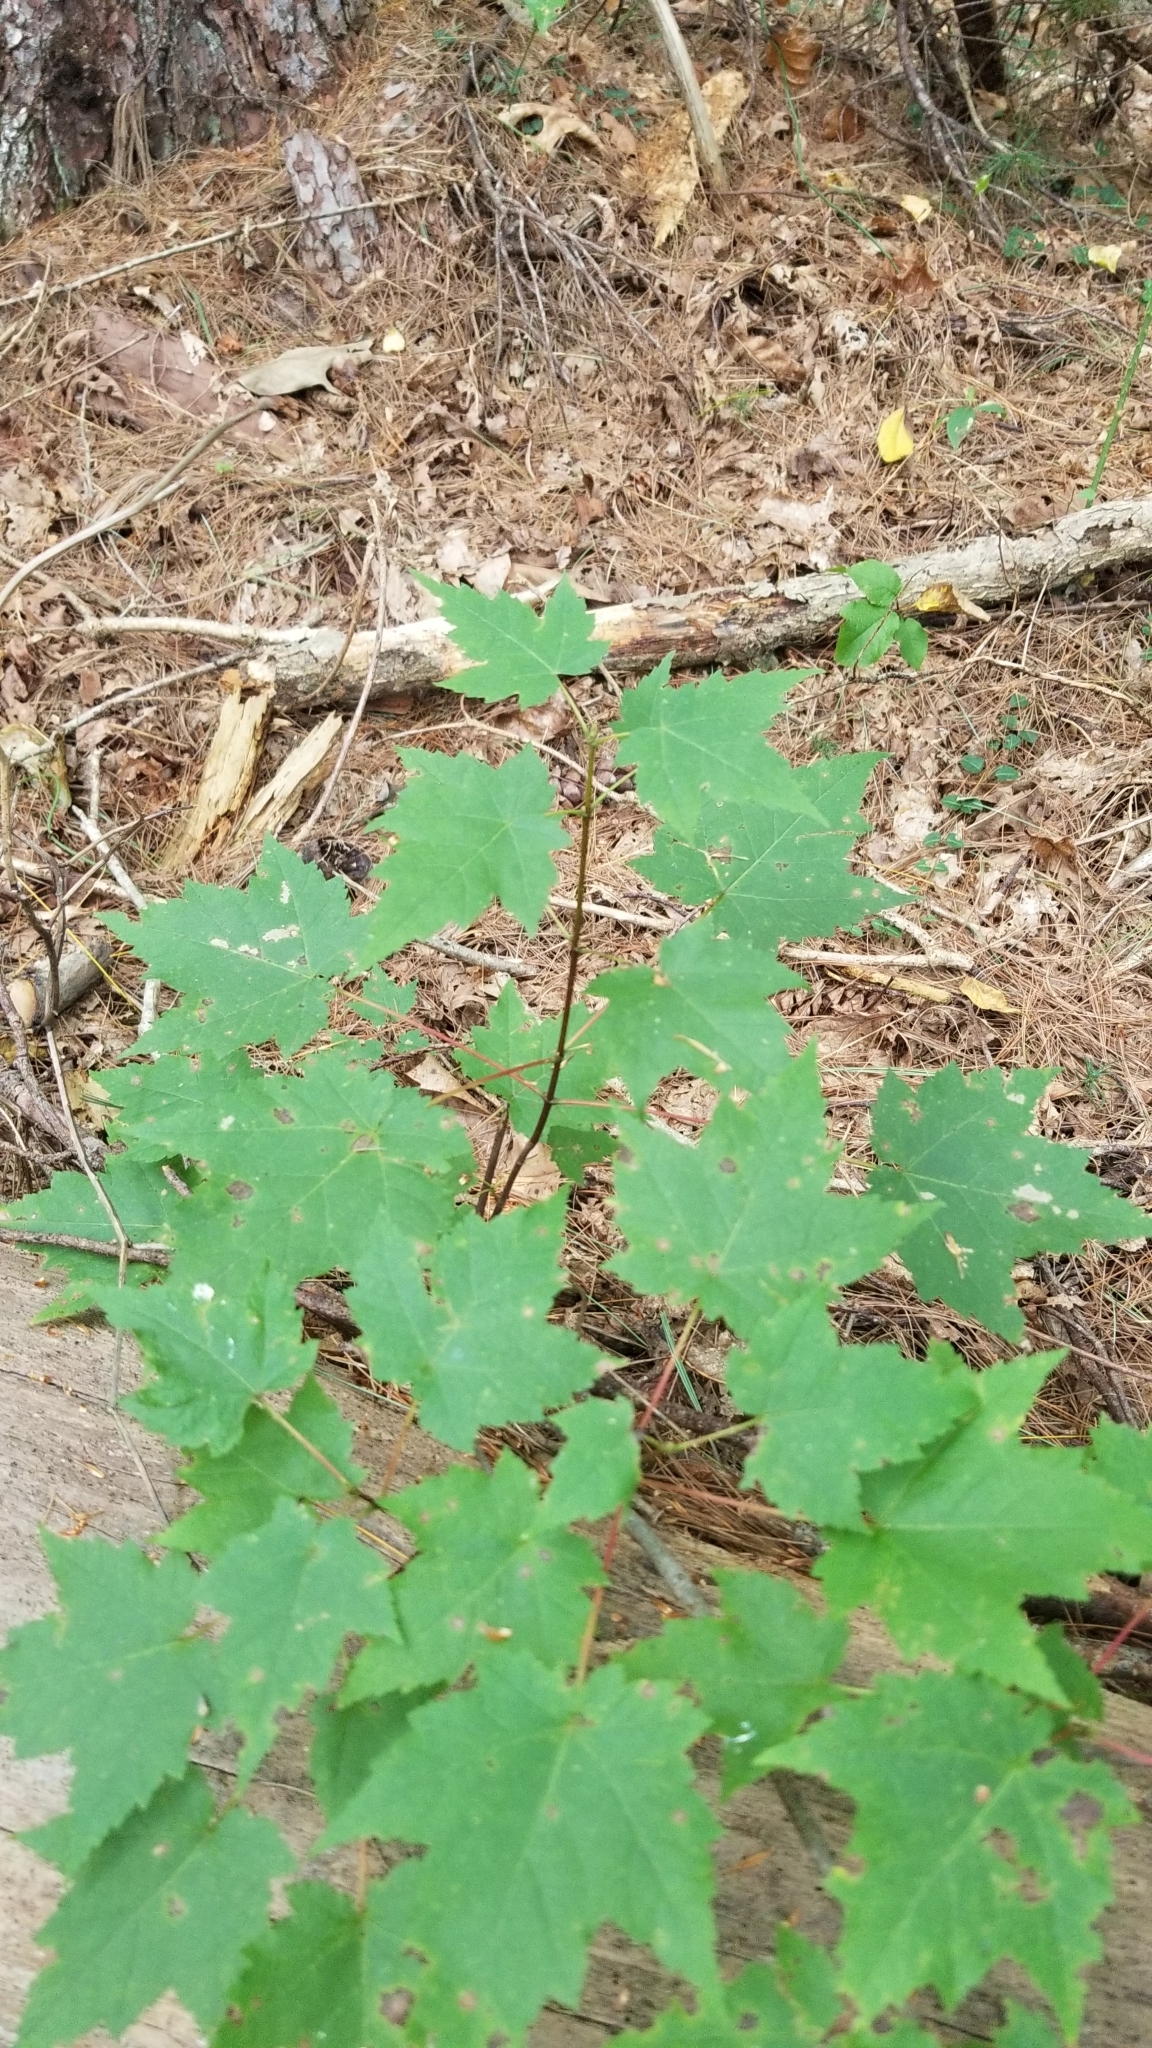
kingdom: Plantae
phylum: Tracheophyta
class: Magnoliopsida
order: Sapindales
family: Sapindaceae
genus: Acer
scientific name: Acer rubrum
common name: Red maple
